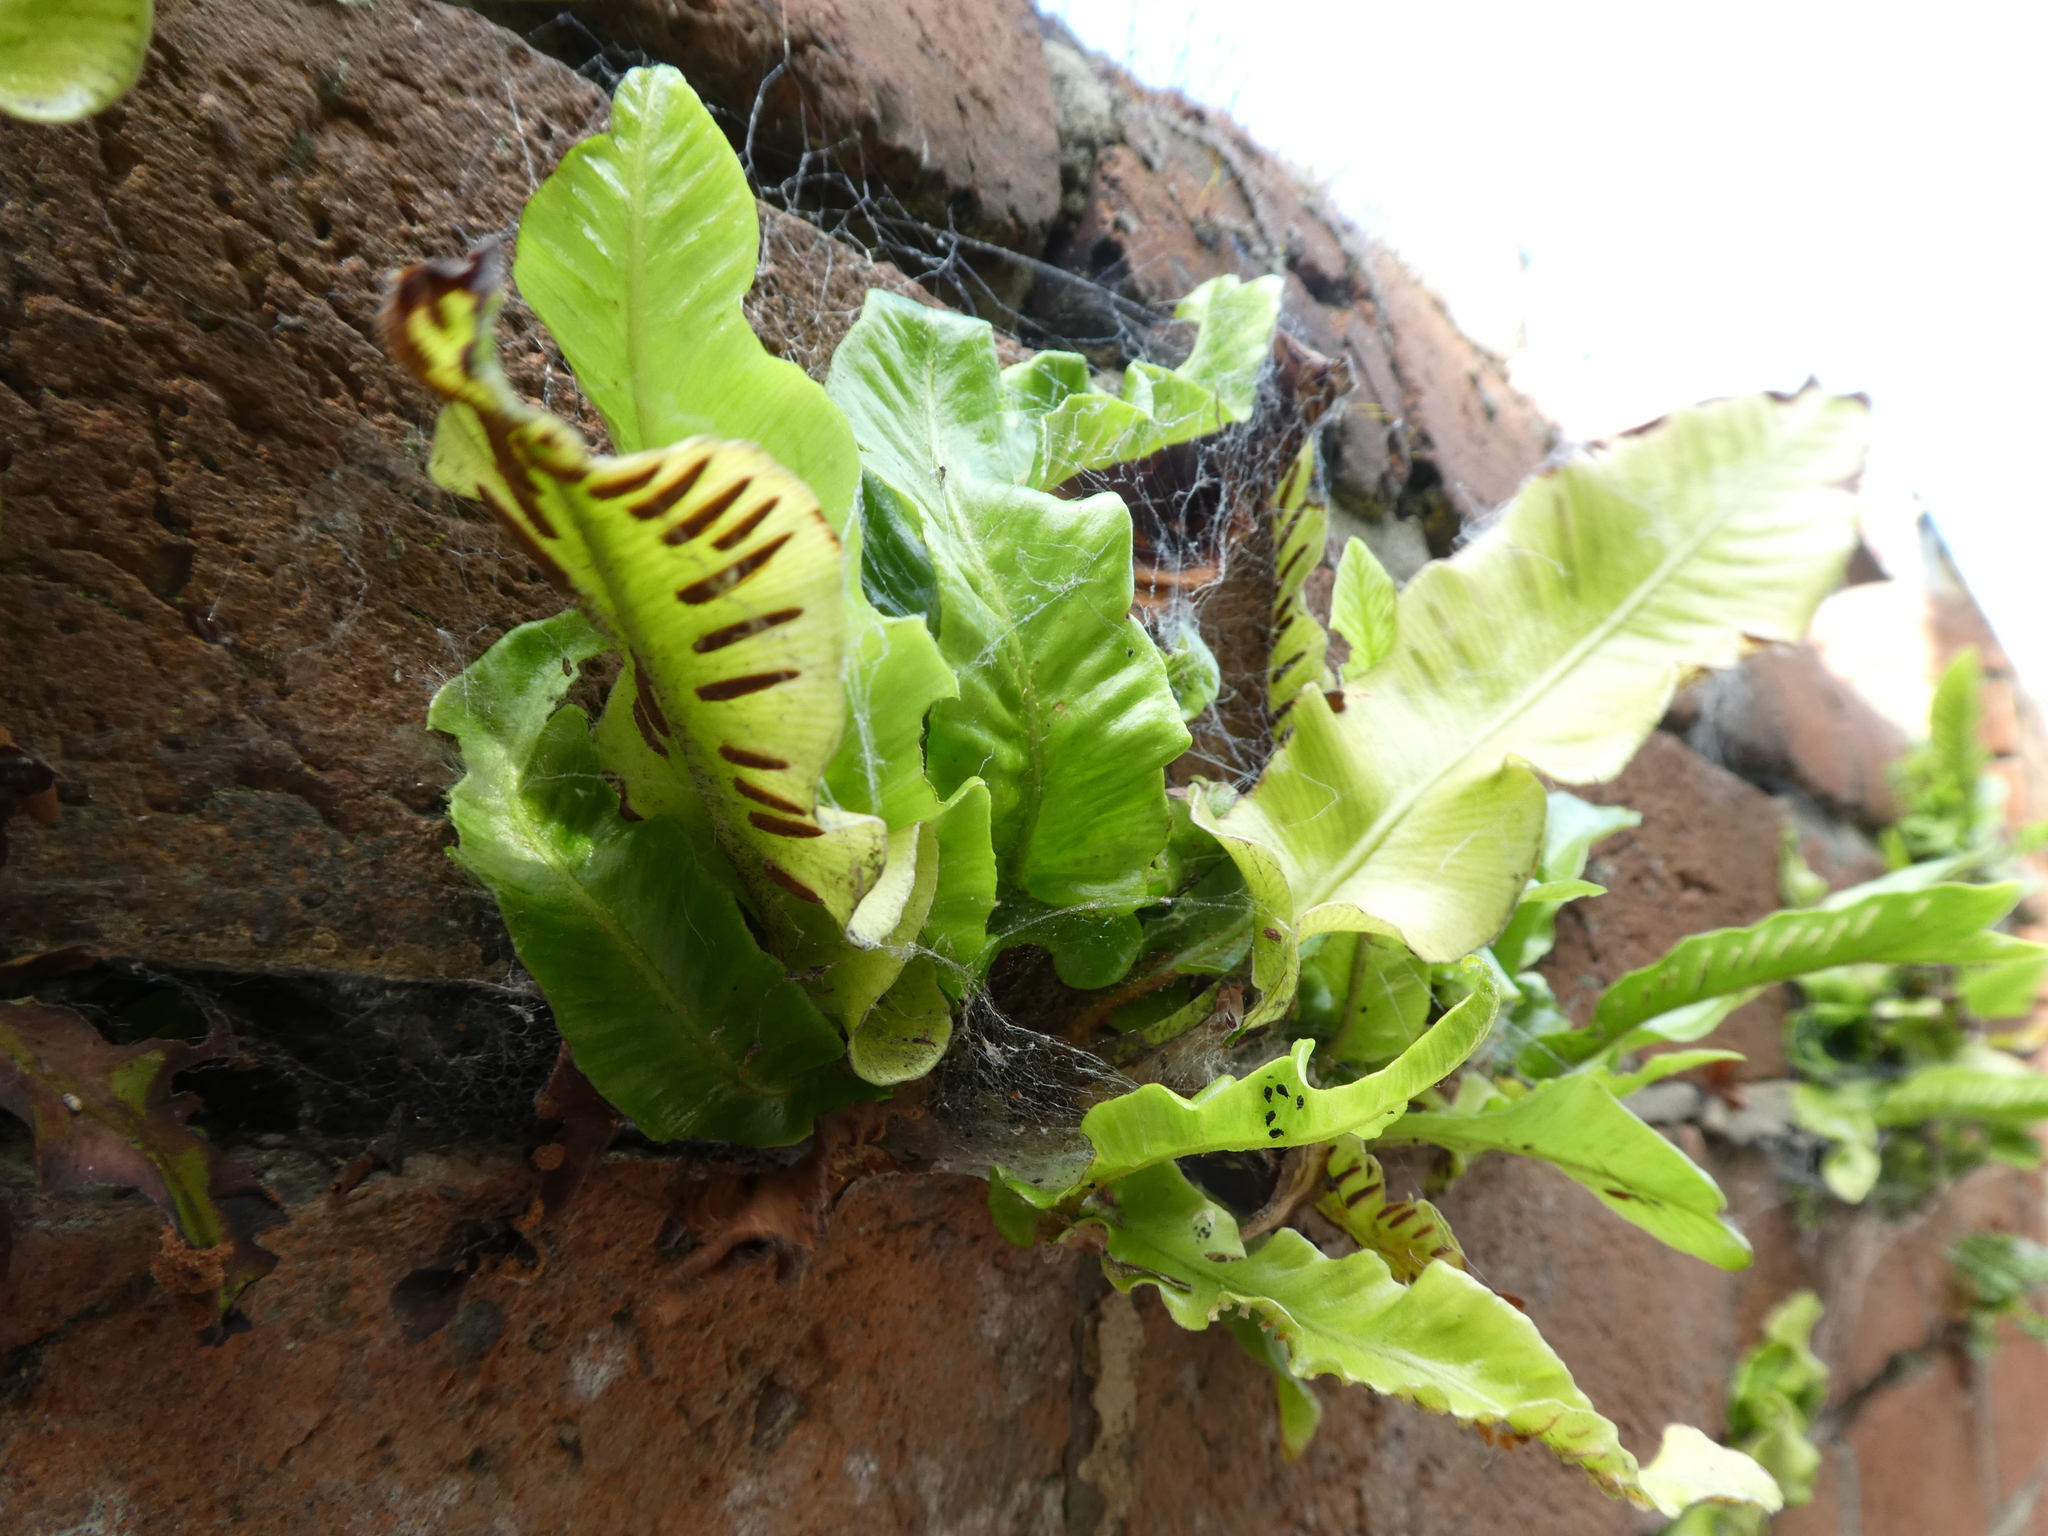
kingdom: Plantae
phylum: Tracheophyta
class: Polypodiopsida
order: Polypodiales
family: Aspleniaceae
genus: Asplenium
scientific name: Asplenium scolopendrium
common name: Hart's-tongue fern
